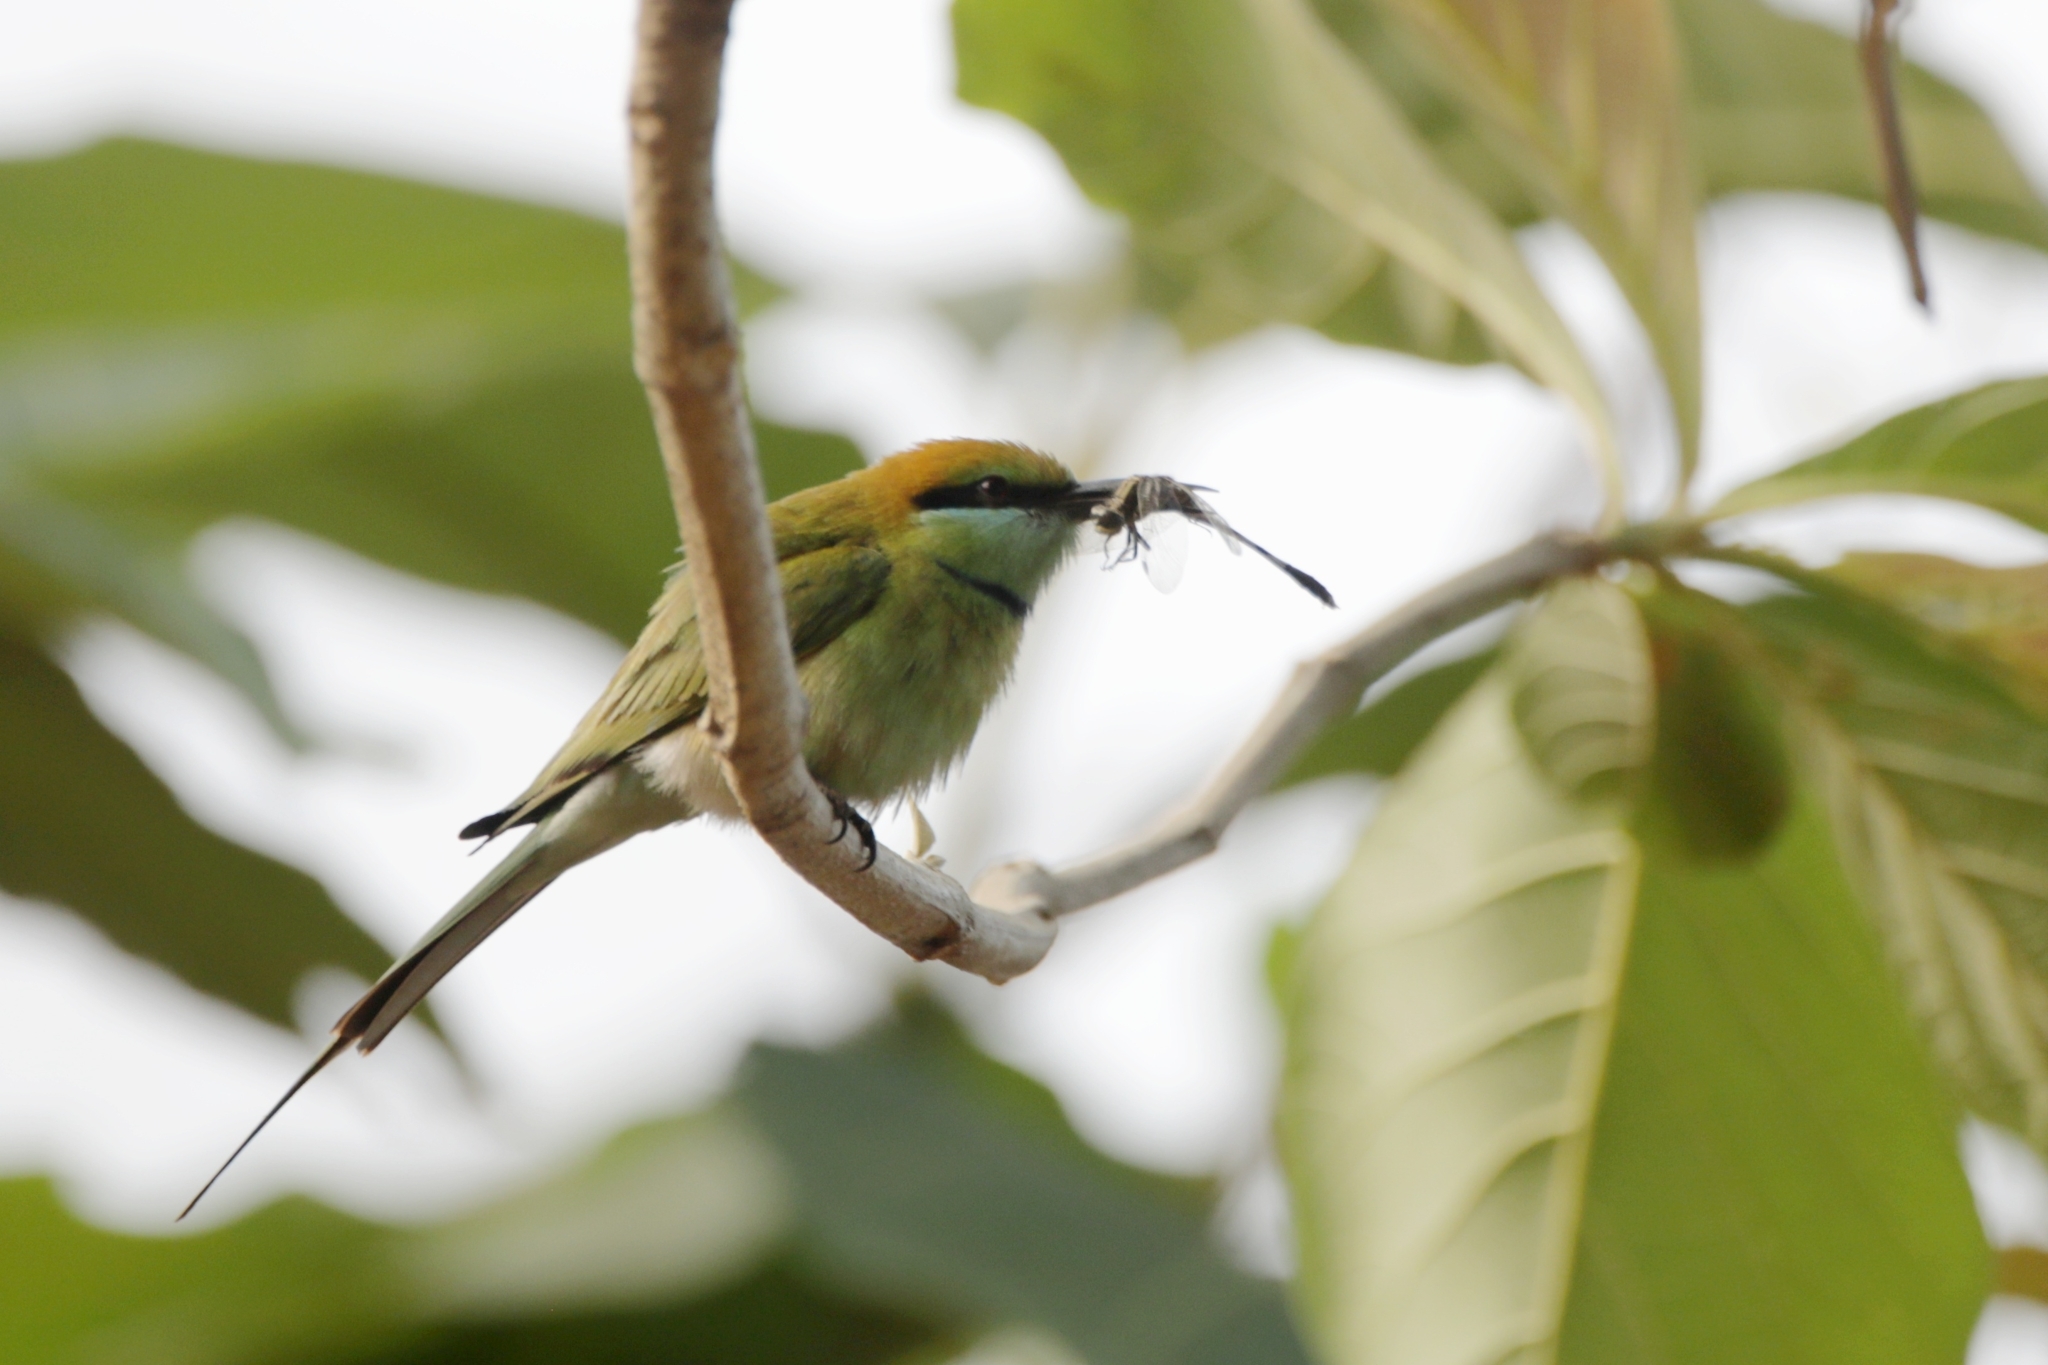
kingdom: Animalia
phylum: Chordata
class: Aves
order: Coraciiformes
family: Meropidae
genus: Merops
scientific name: Merops orientalis
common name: Green bee-eater
